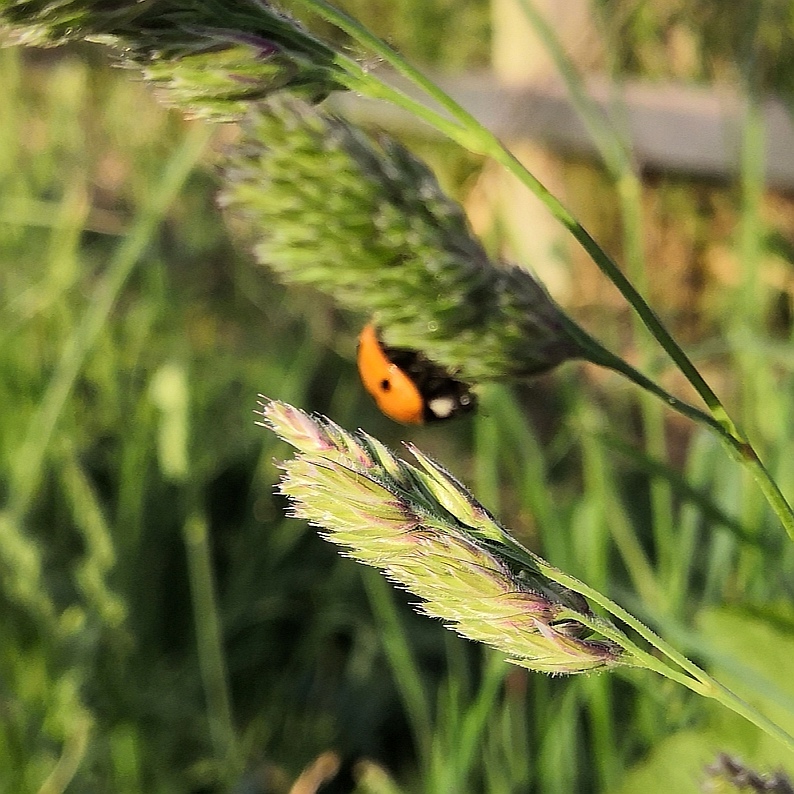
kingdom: Animalia
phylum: Arthropoda
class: Insecta
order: Coleoptera
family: Coccinellidae
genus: Coccinella
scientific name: Coccinella septempunctata
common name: Sevenspotted lady beetle
